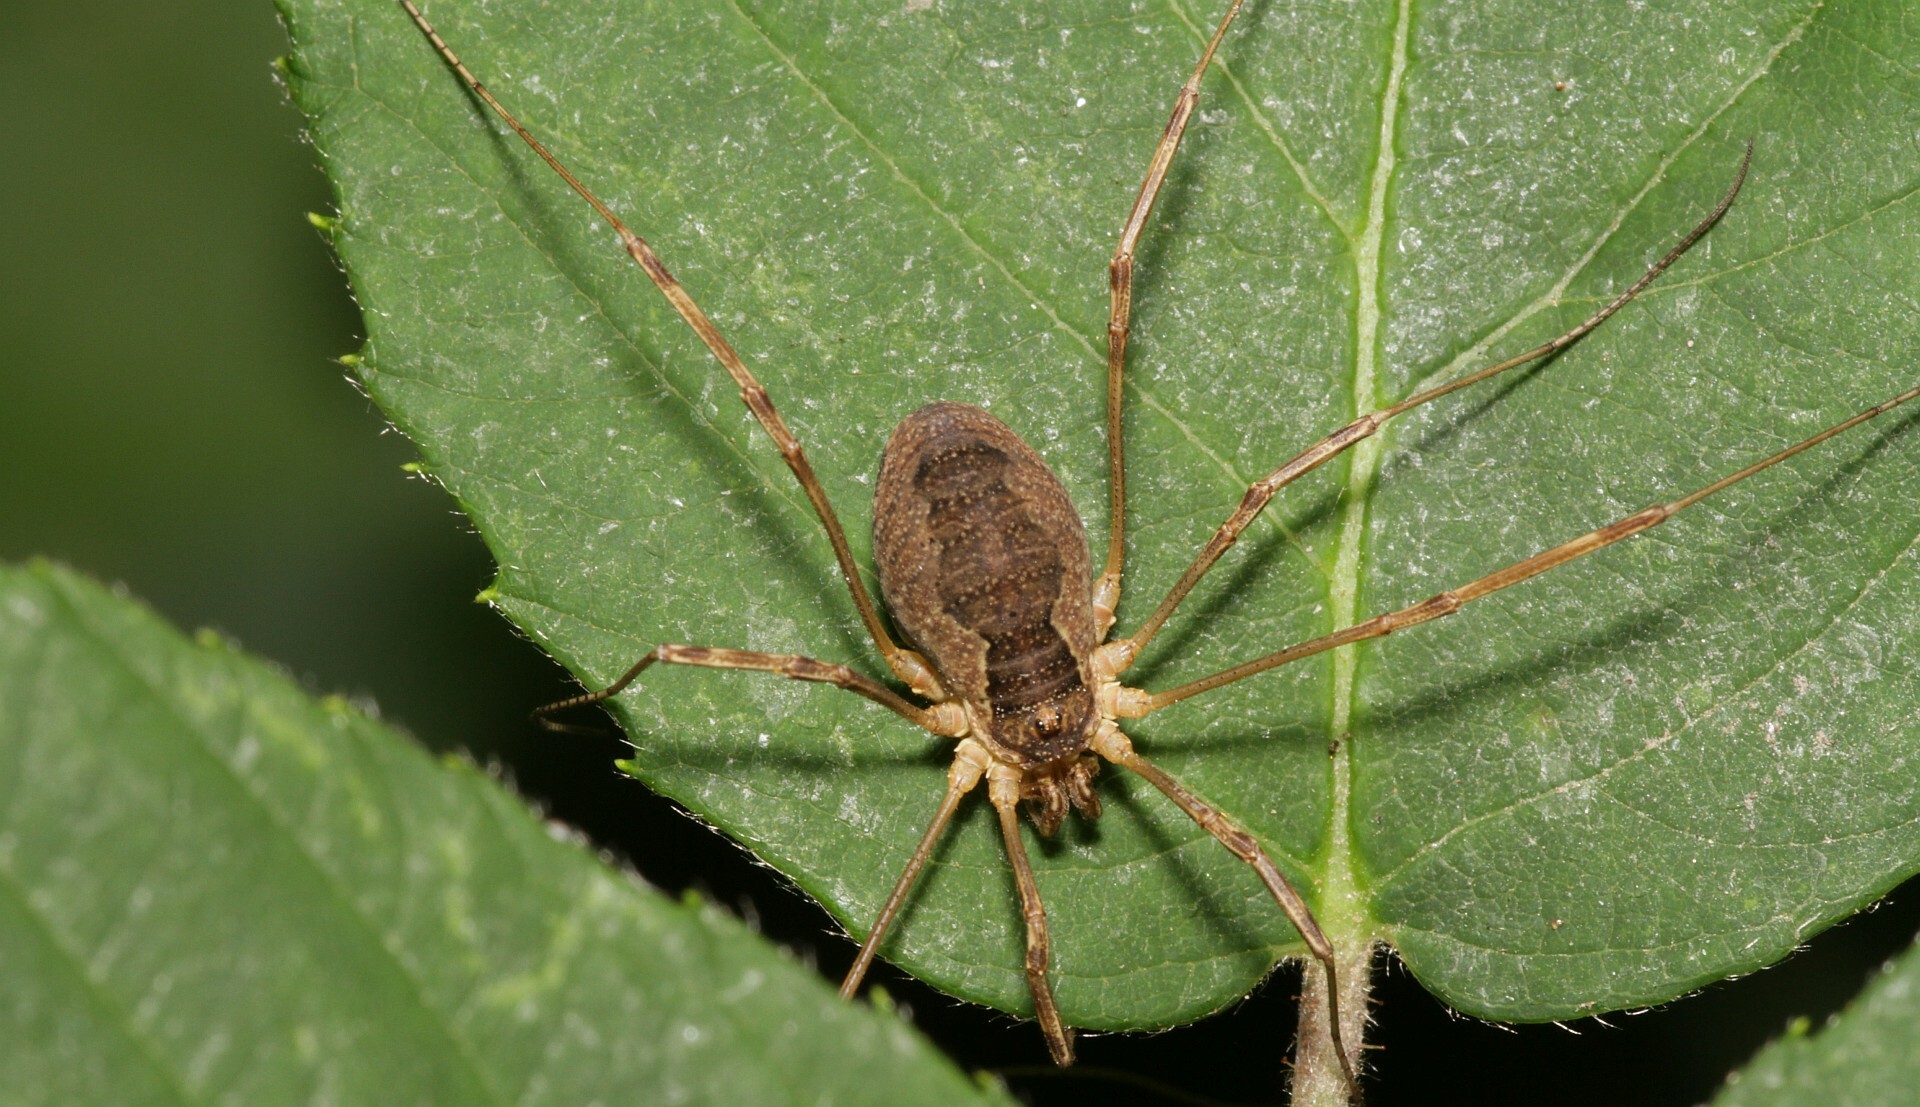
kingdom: Animalia
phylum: Arthropoda
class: Arachnida
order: Opiliones
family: Phalangiidae
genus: Mitopus
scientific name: Mitopus morio
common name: Saddleback harvestman
